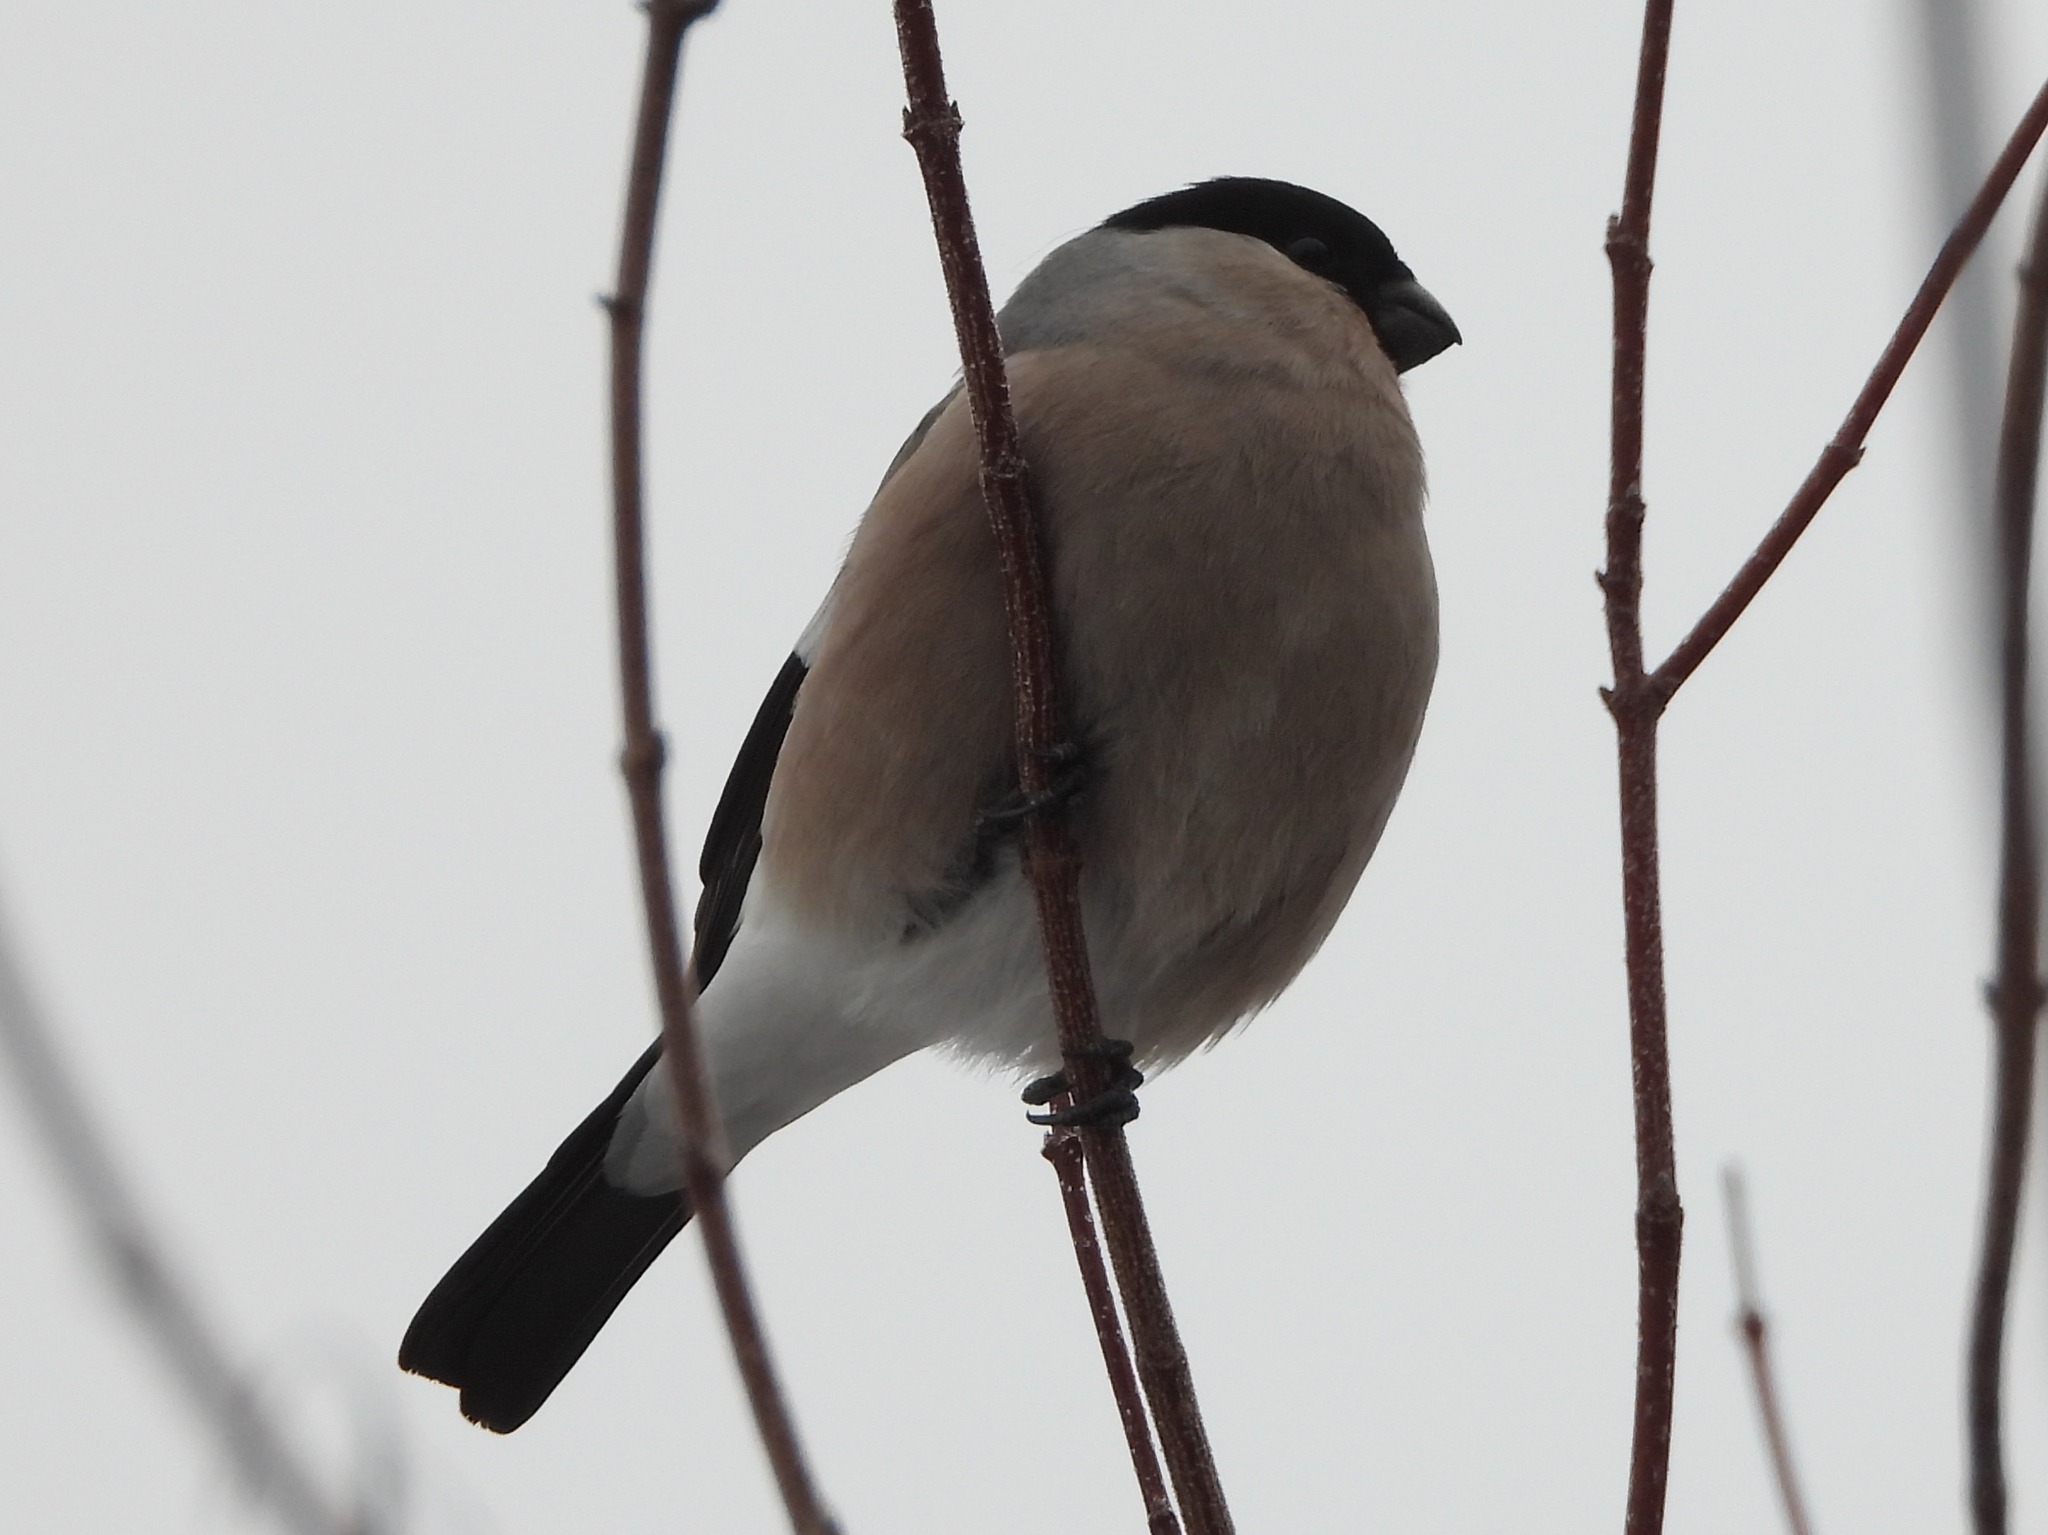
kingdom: Animalia
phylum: Chordata
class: Aves
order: Passeriformes
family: Fringillidae
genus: Pyrrhula
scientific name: Pyrrhula pyrrhula
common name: Eurasian bullfinch
